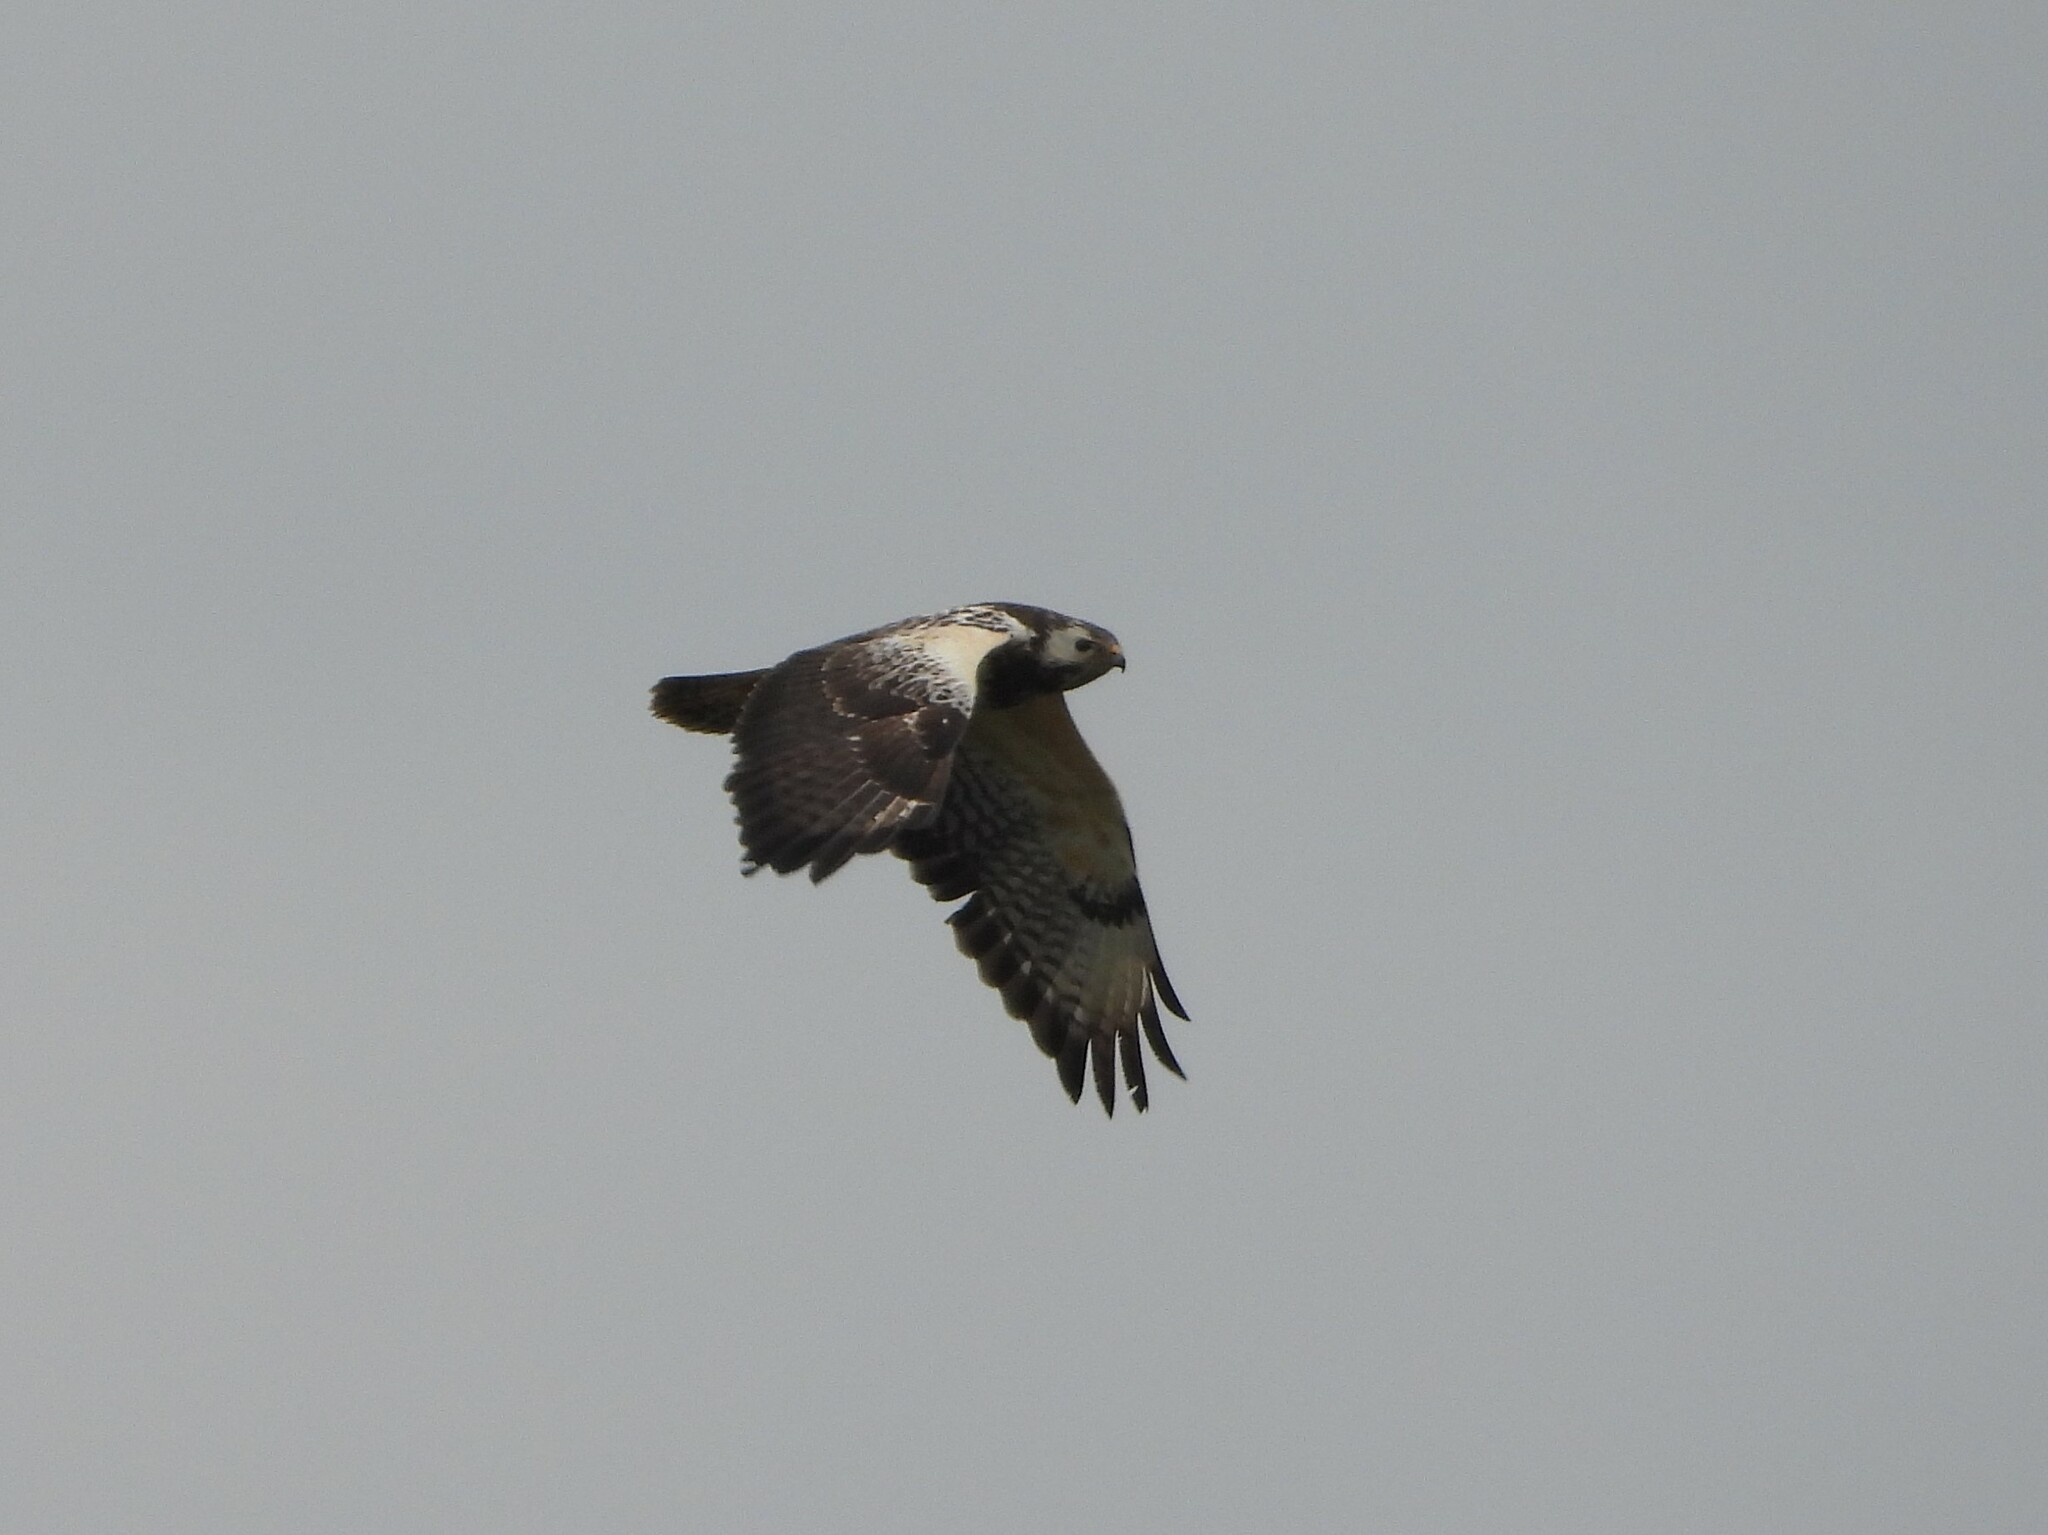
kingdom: Animalia
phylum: Chordata
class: Aves
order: Accipitriformes
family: Accipitridae
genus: Buteo
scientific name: Buteo buteo
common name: Common buzzard
